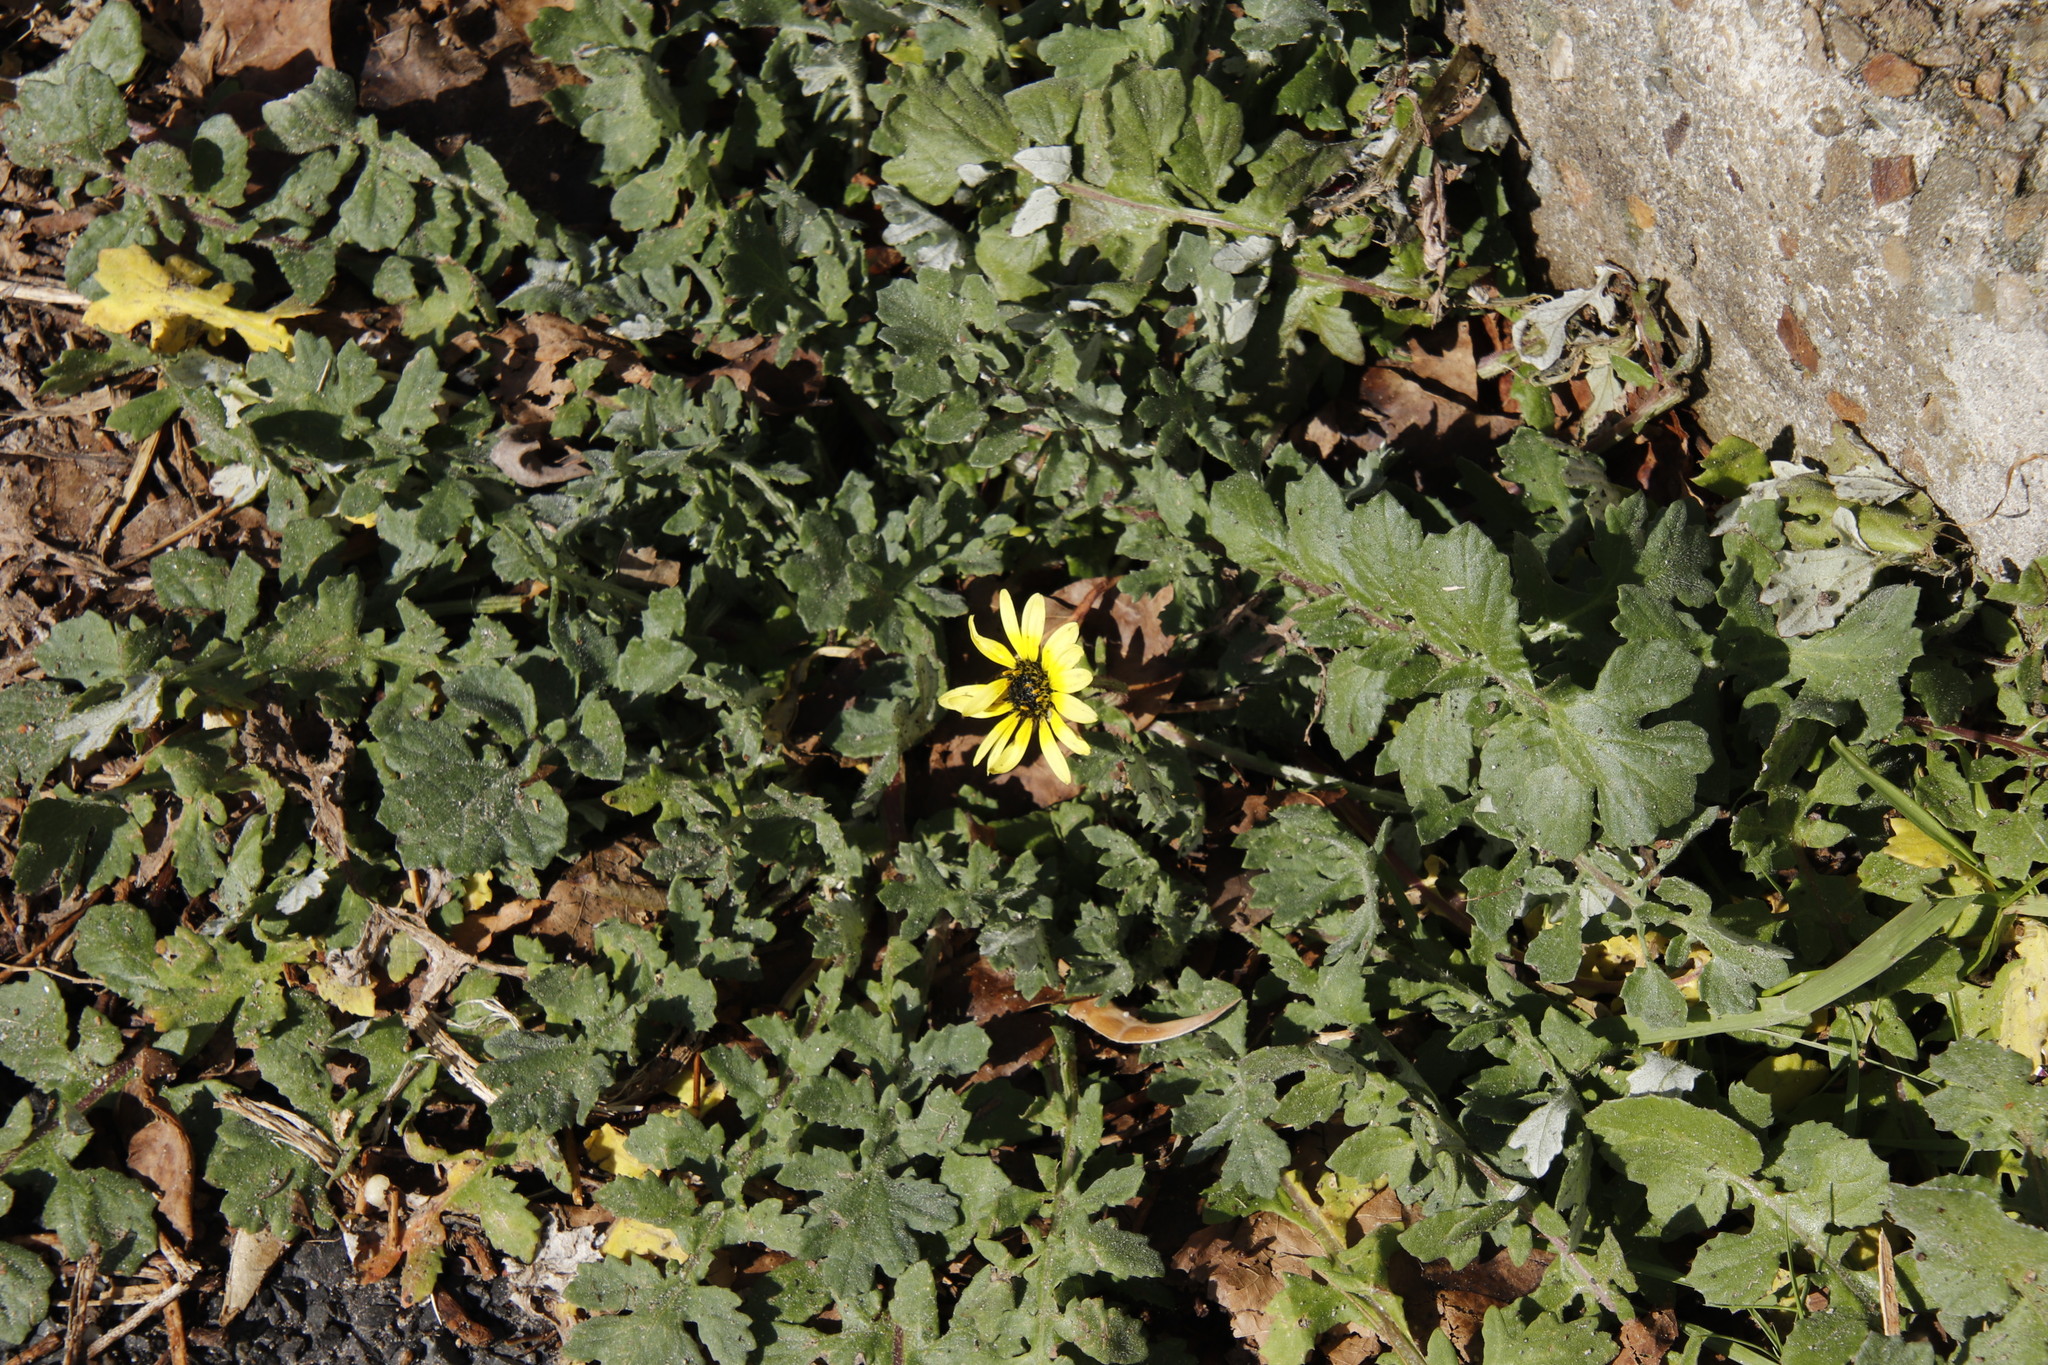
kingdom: Plantae
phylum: Tracheophyta
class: Magnoliopsida
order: Asterales
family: Asteraceae
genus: Arctotheca
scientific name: Arctotheca calendula
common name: Capeweed
